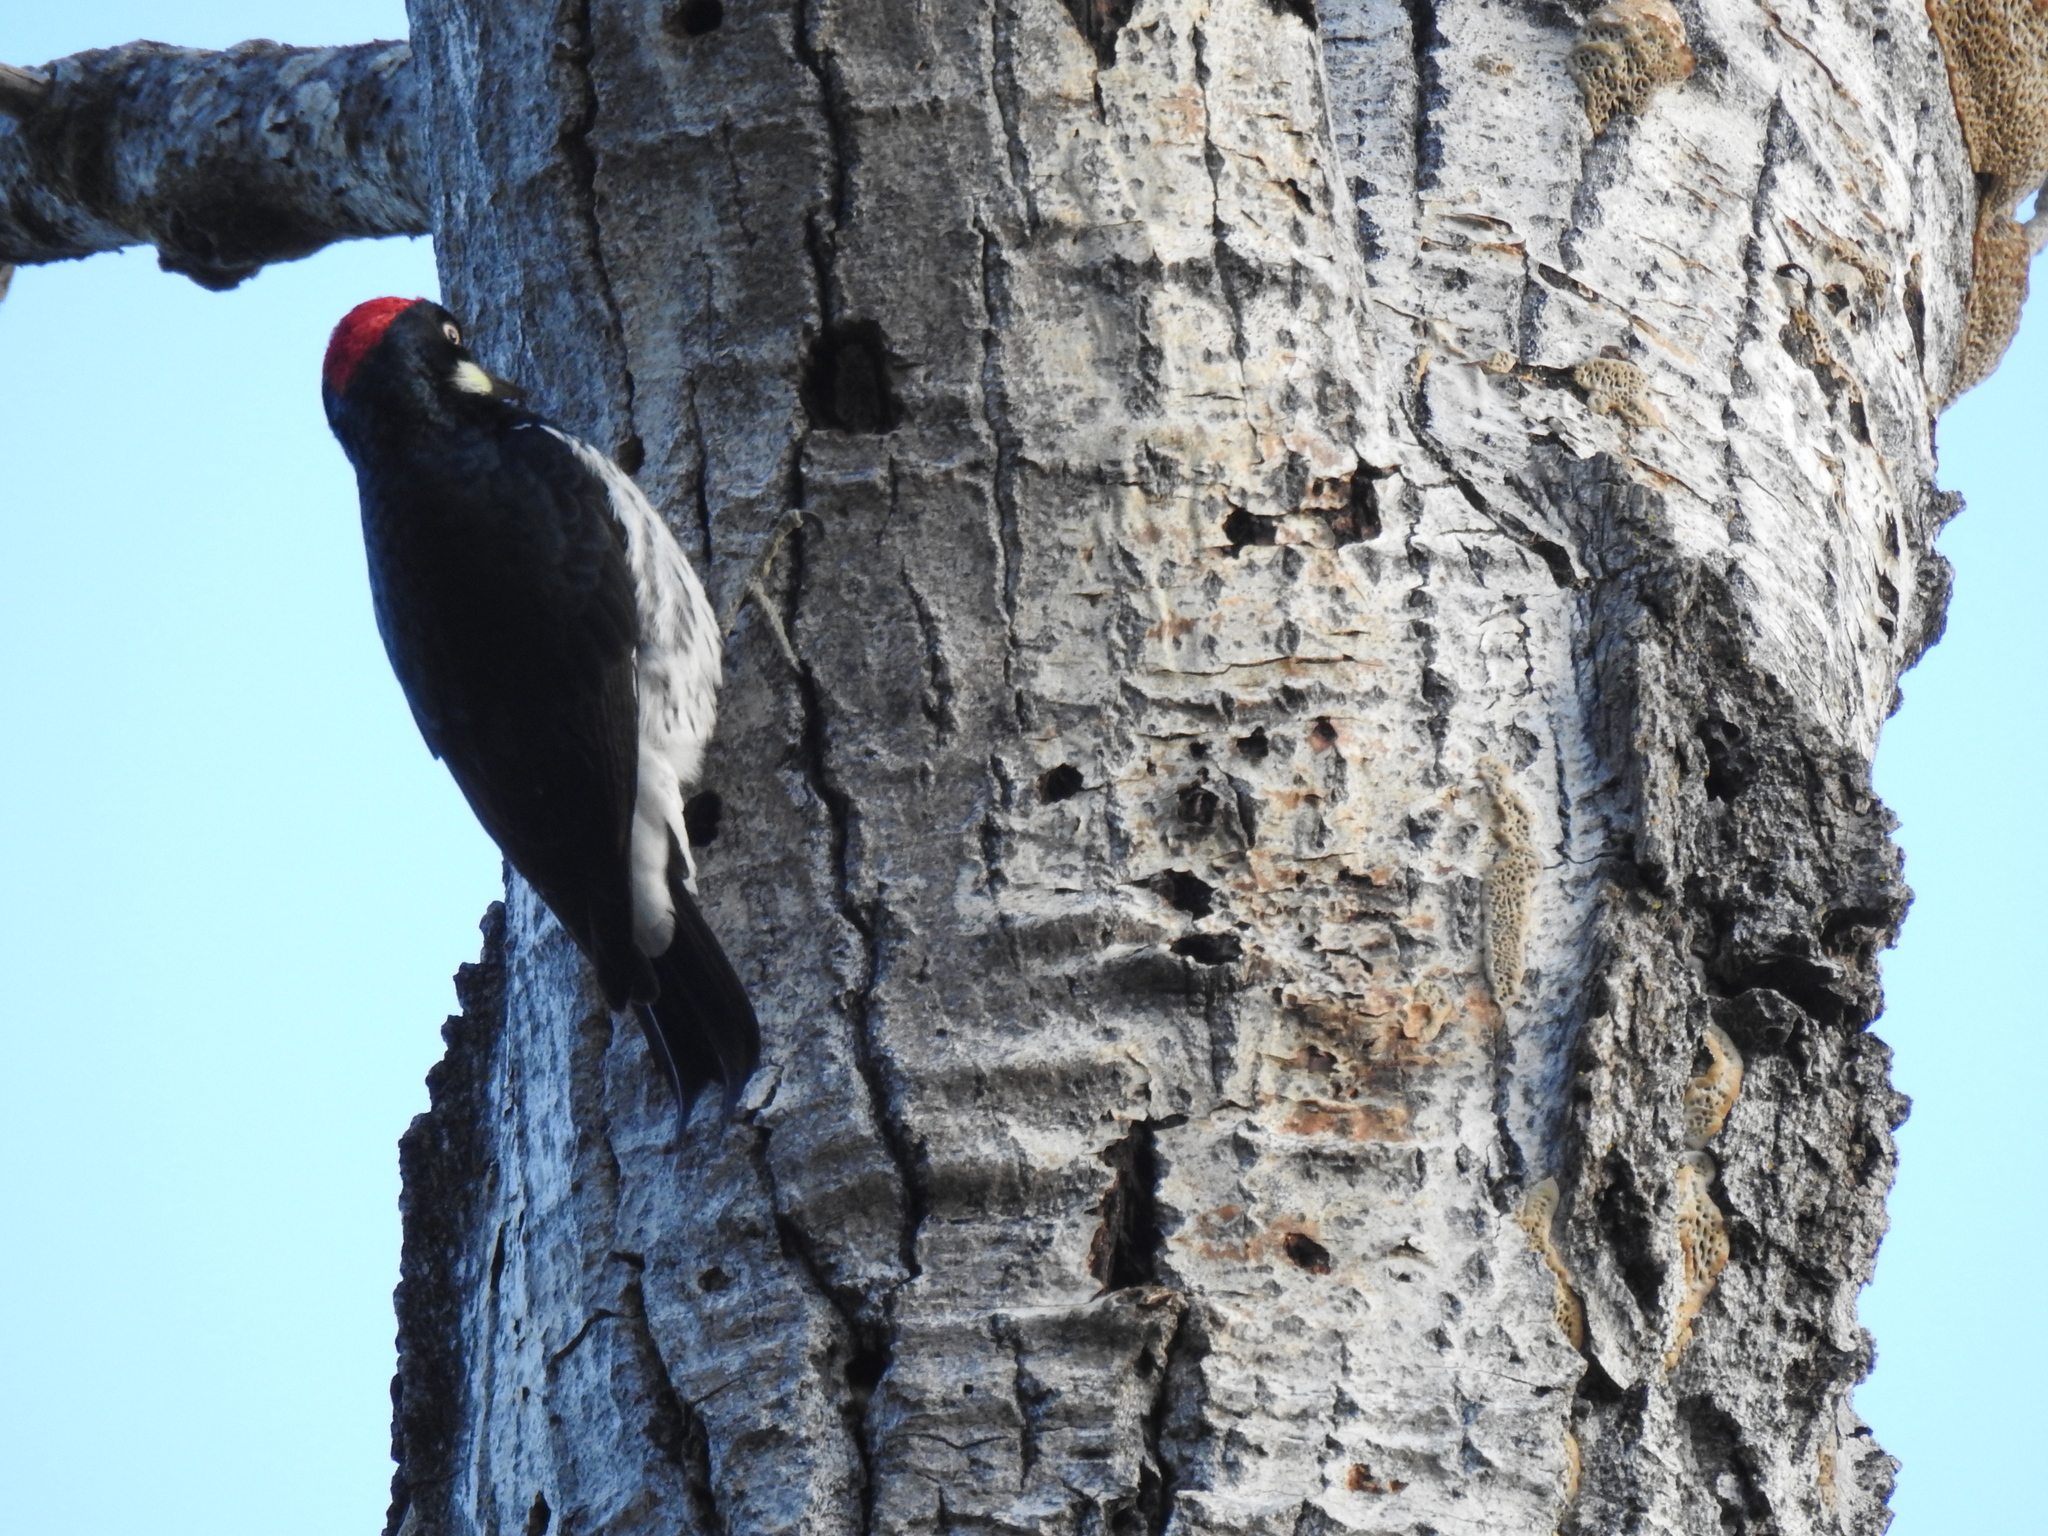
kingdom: Animalia
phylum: Chordata
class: Aves
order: Piciformes
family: Picidae
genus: Melanerpes
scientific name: Melanerpes formicivorus
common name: Acorn woodpecker
